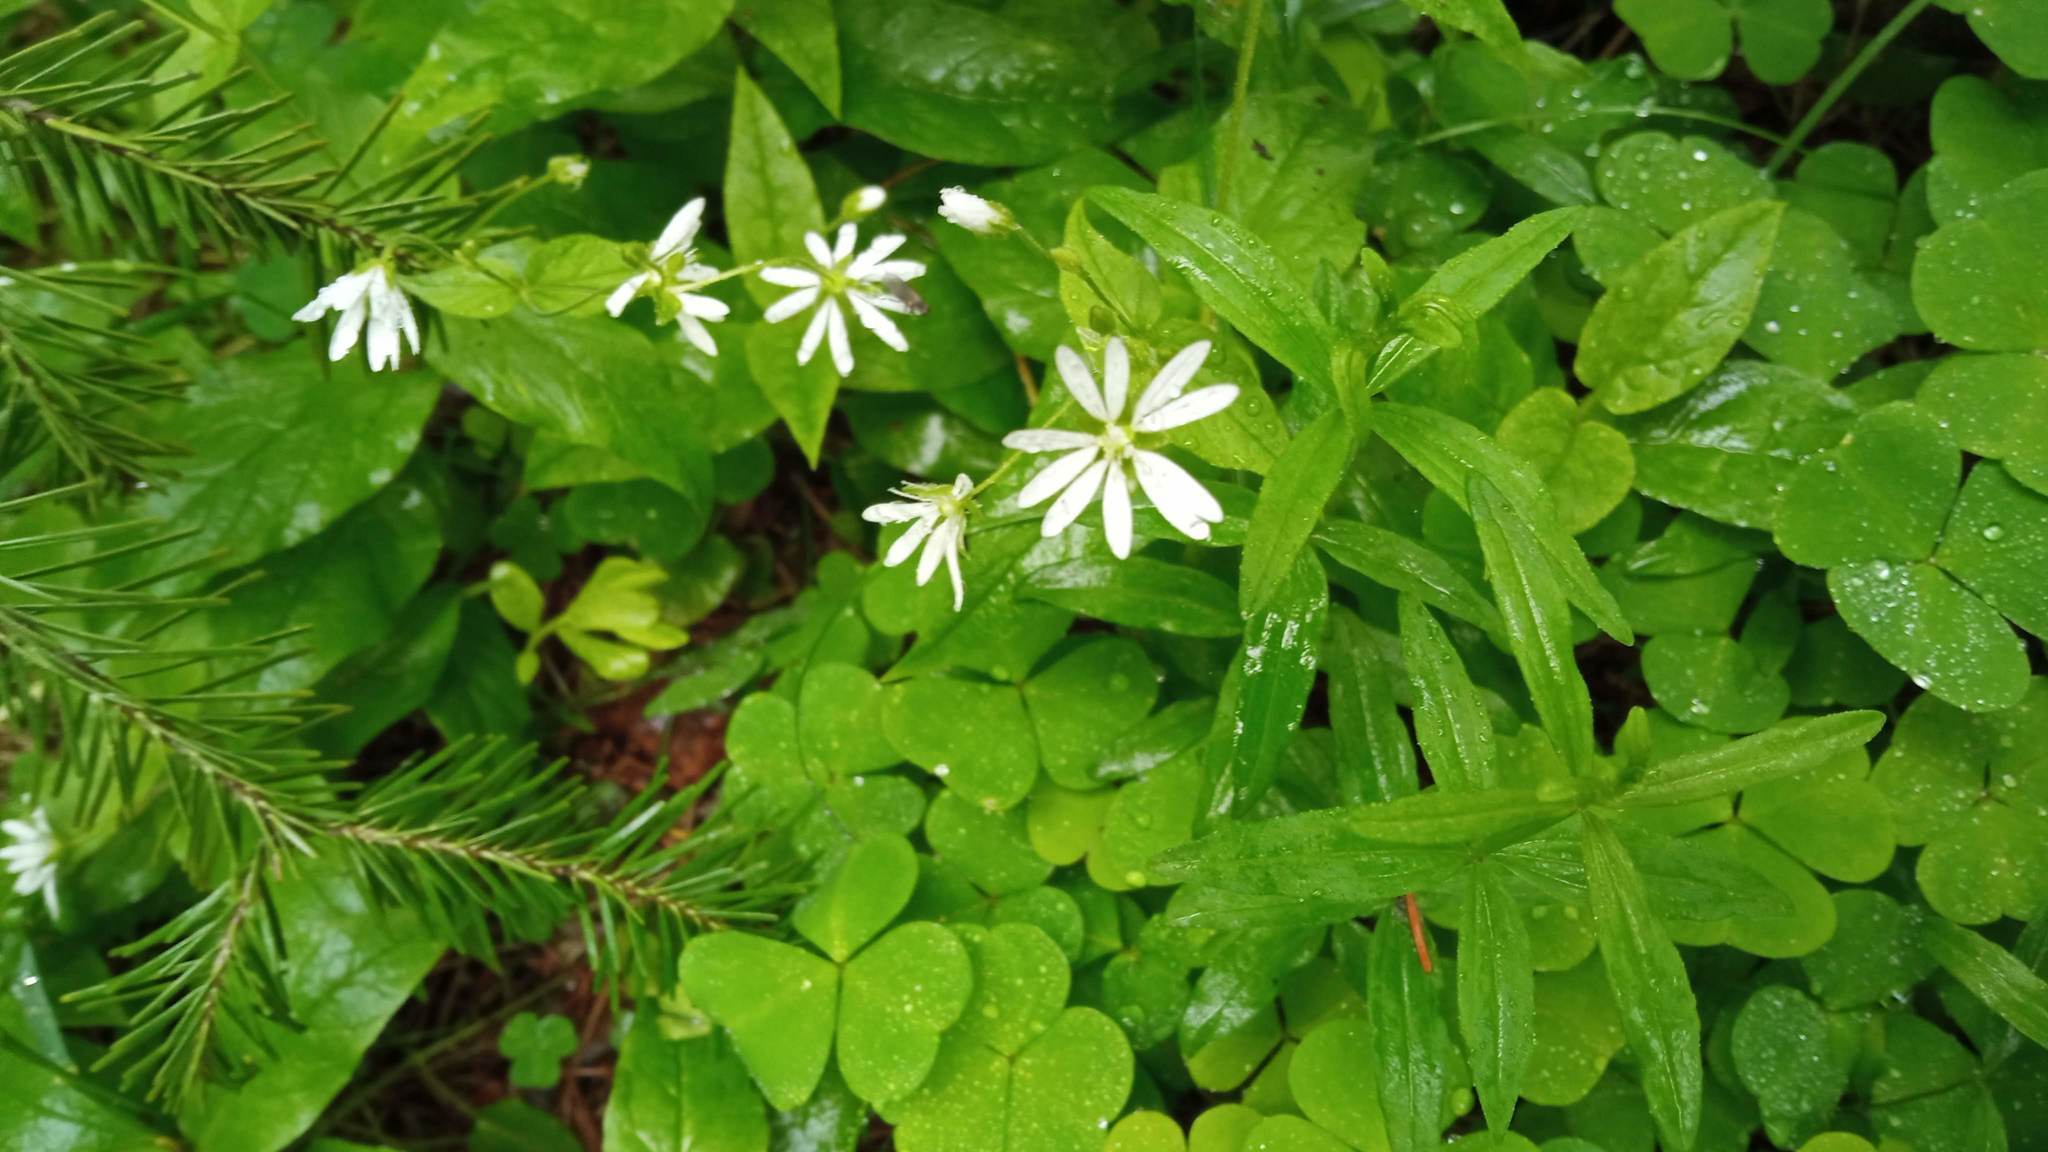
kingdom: Plantae
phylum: Tracheophyta
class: Magnoliopsida
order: Caryophyllales
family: Caryophyllaceae
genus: Stellaria
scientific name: Stellaria bungeana
